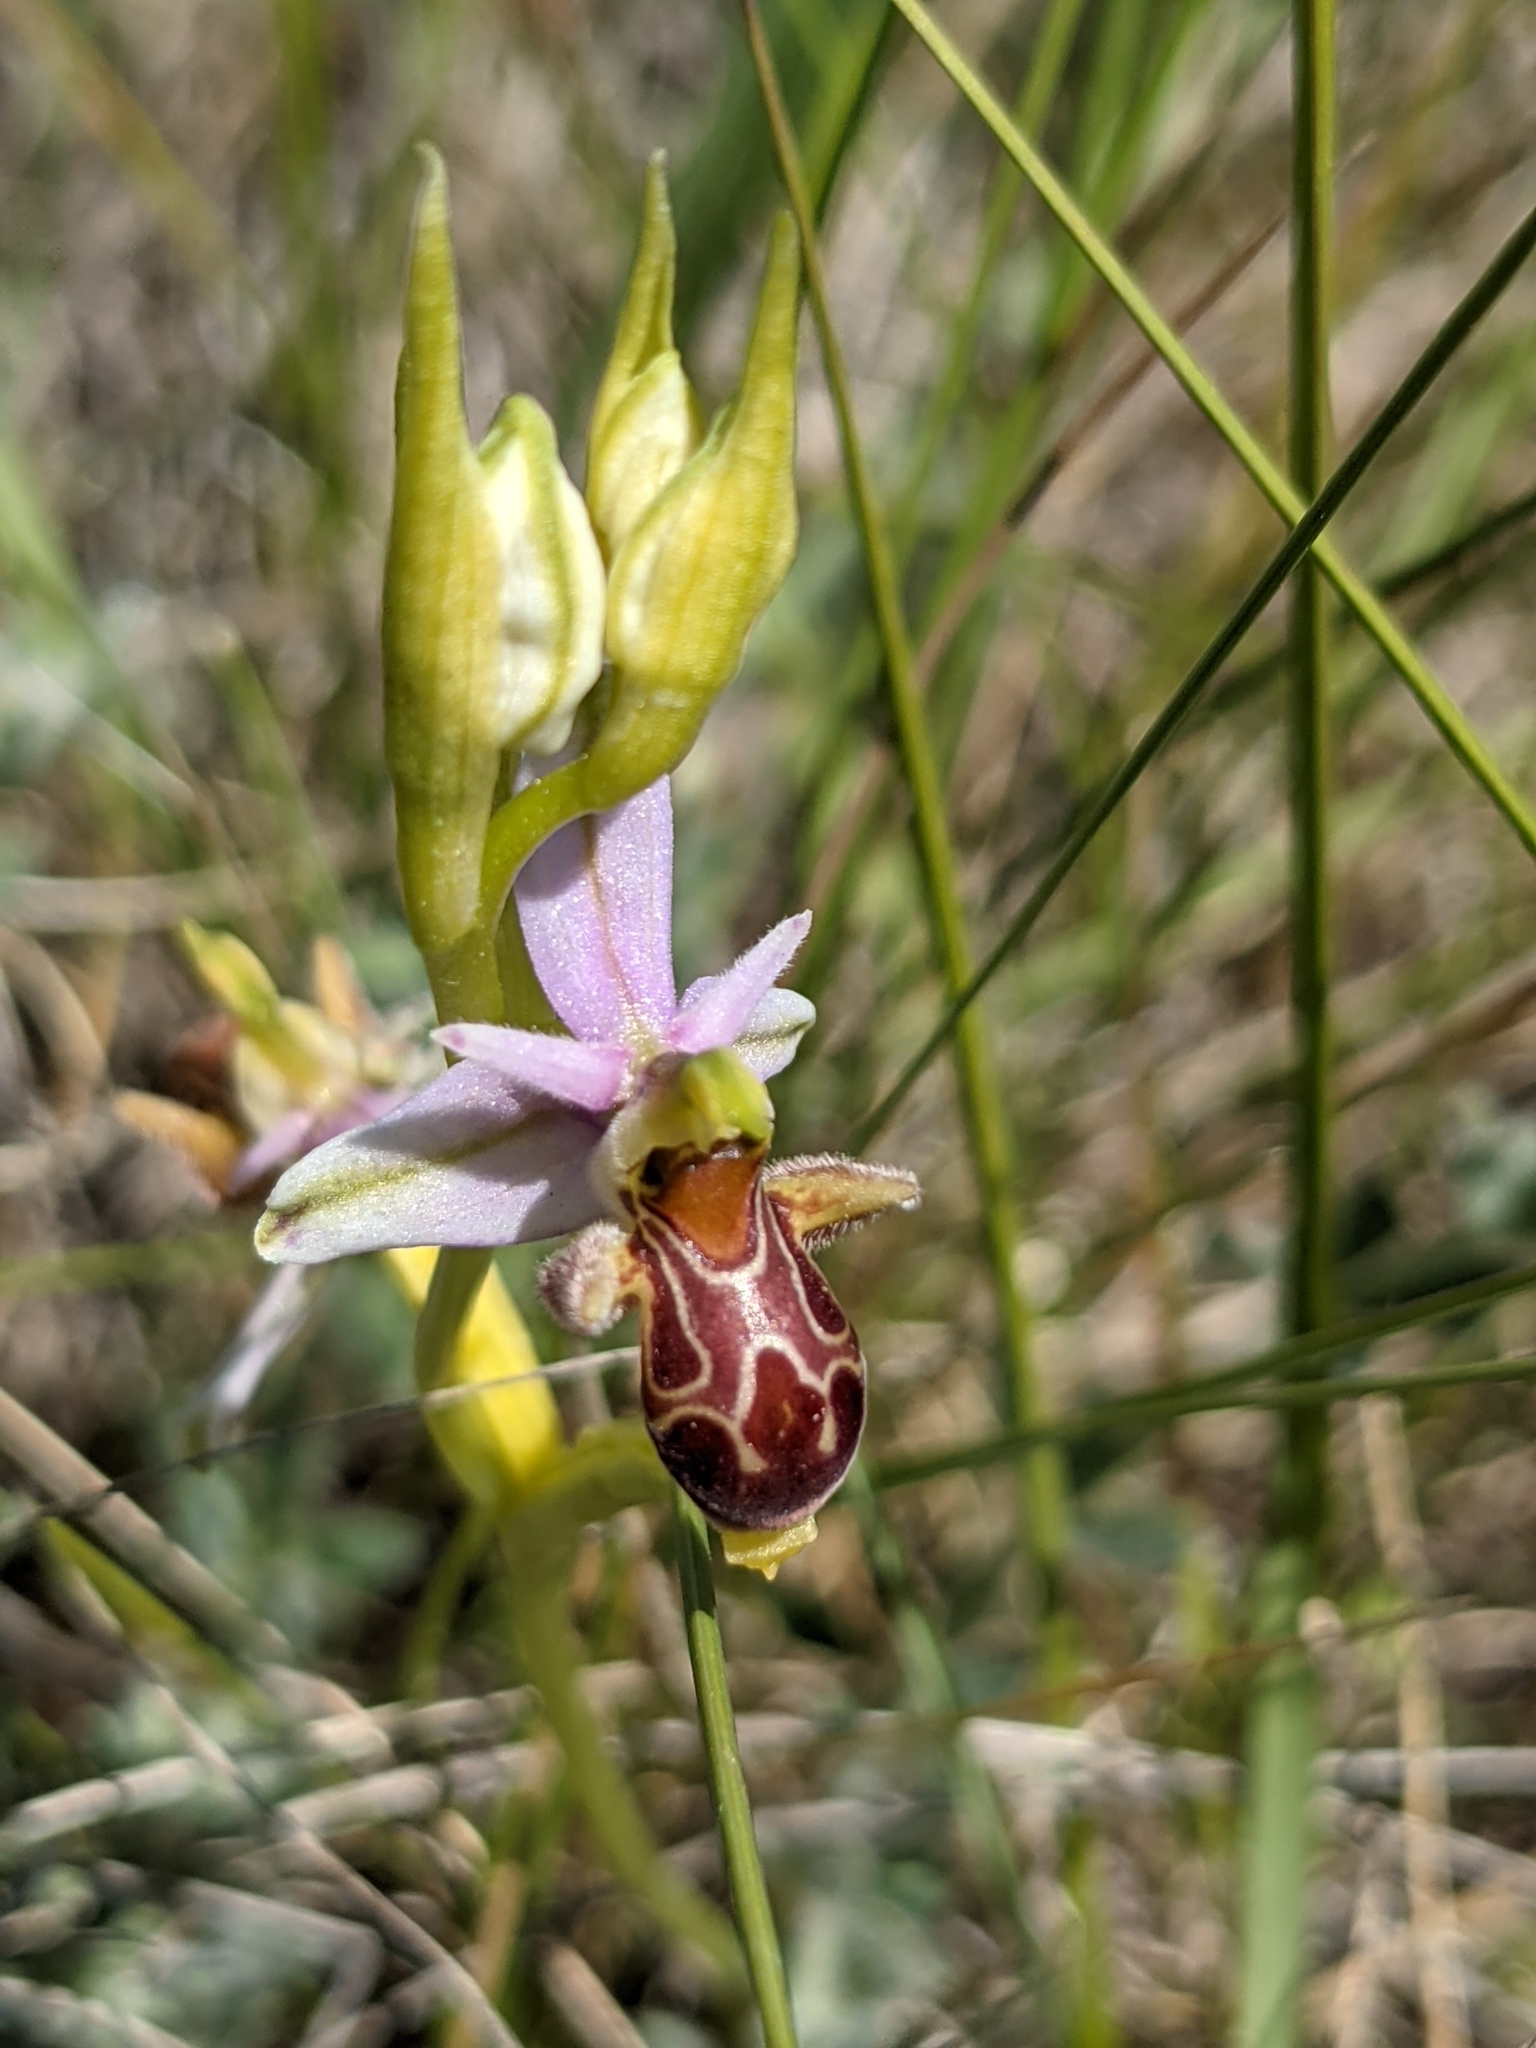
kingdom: Plantae
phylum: Tracheophyta
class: Liliopsida
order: Asparagales
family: Orchidaceae
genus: Ophrys
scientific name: Ophrys scolopax
